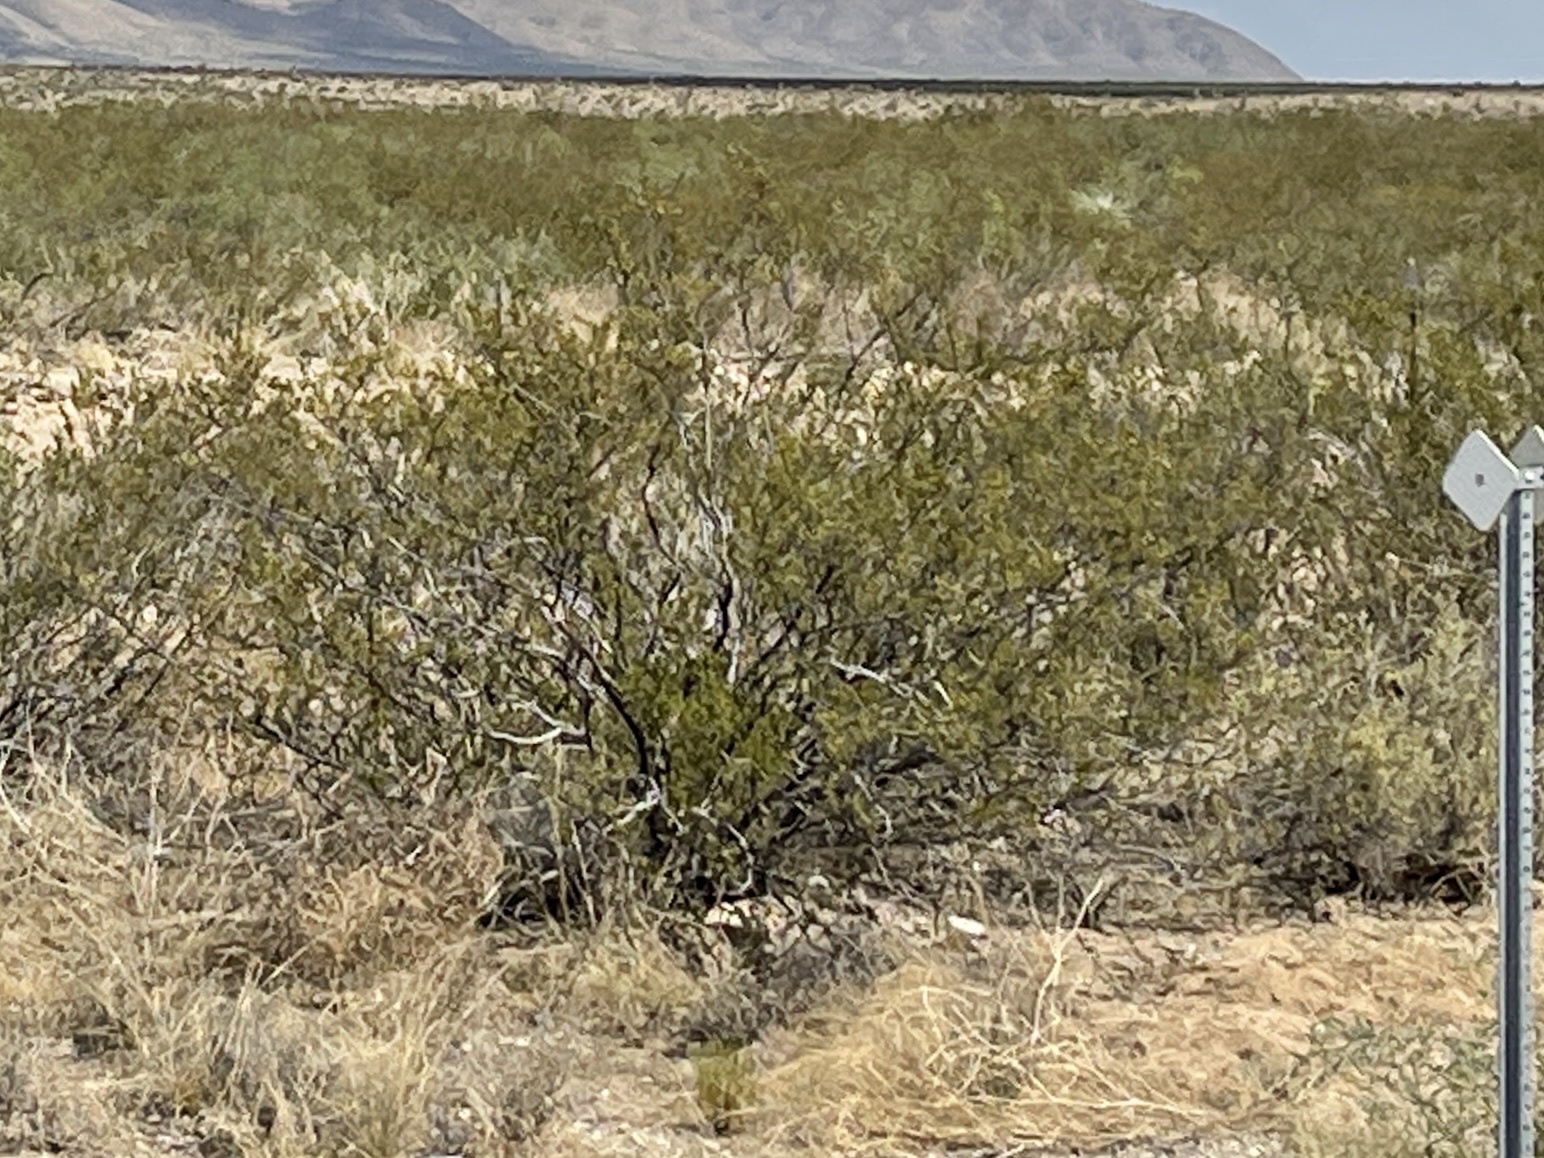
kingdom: Plantae
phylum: Tracheophyta
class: Magnoliopsida
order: Zygophyllales
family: Zygophyllaceae
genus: Larrea
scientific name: Larrea tridentata
